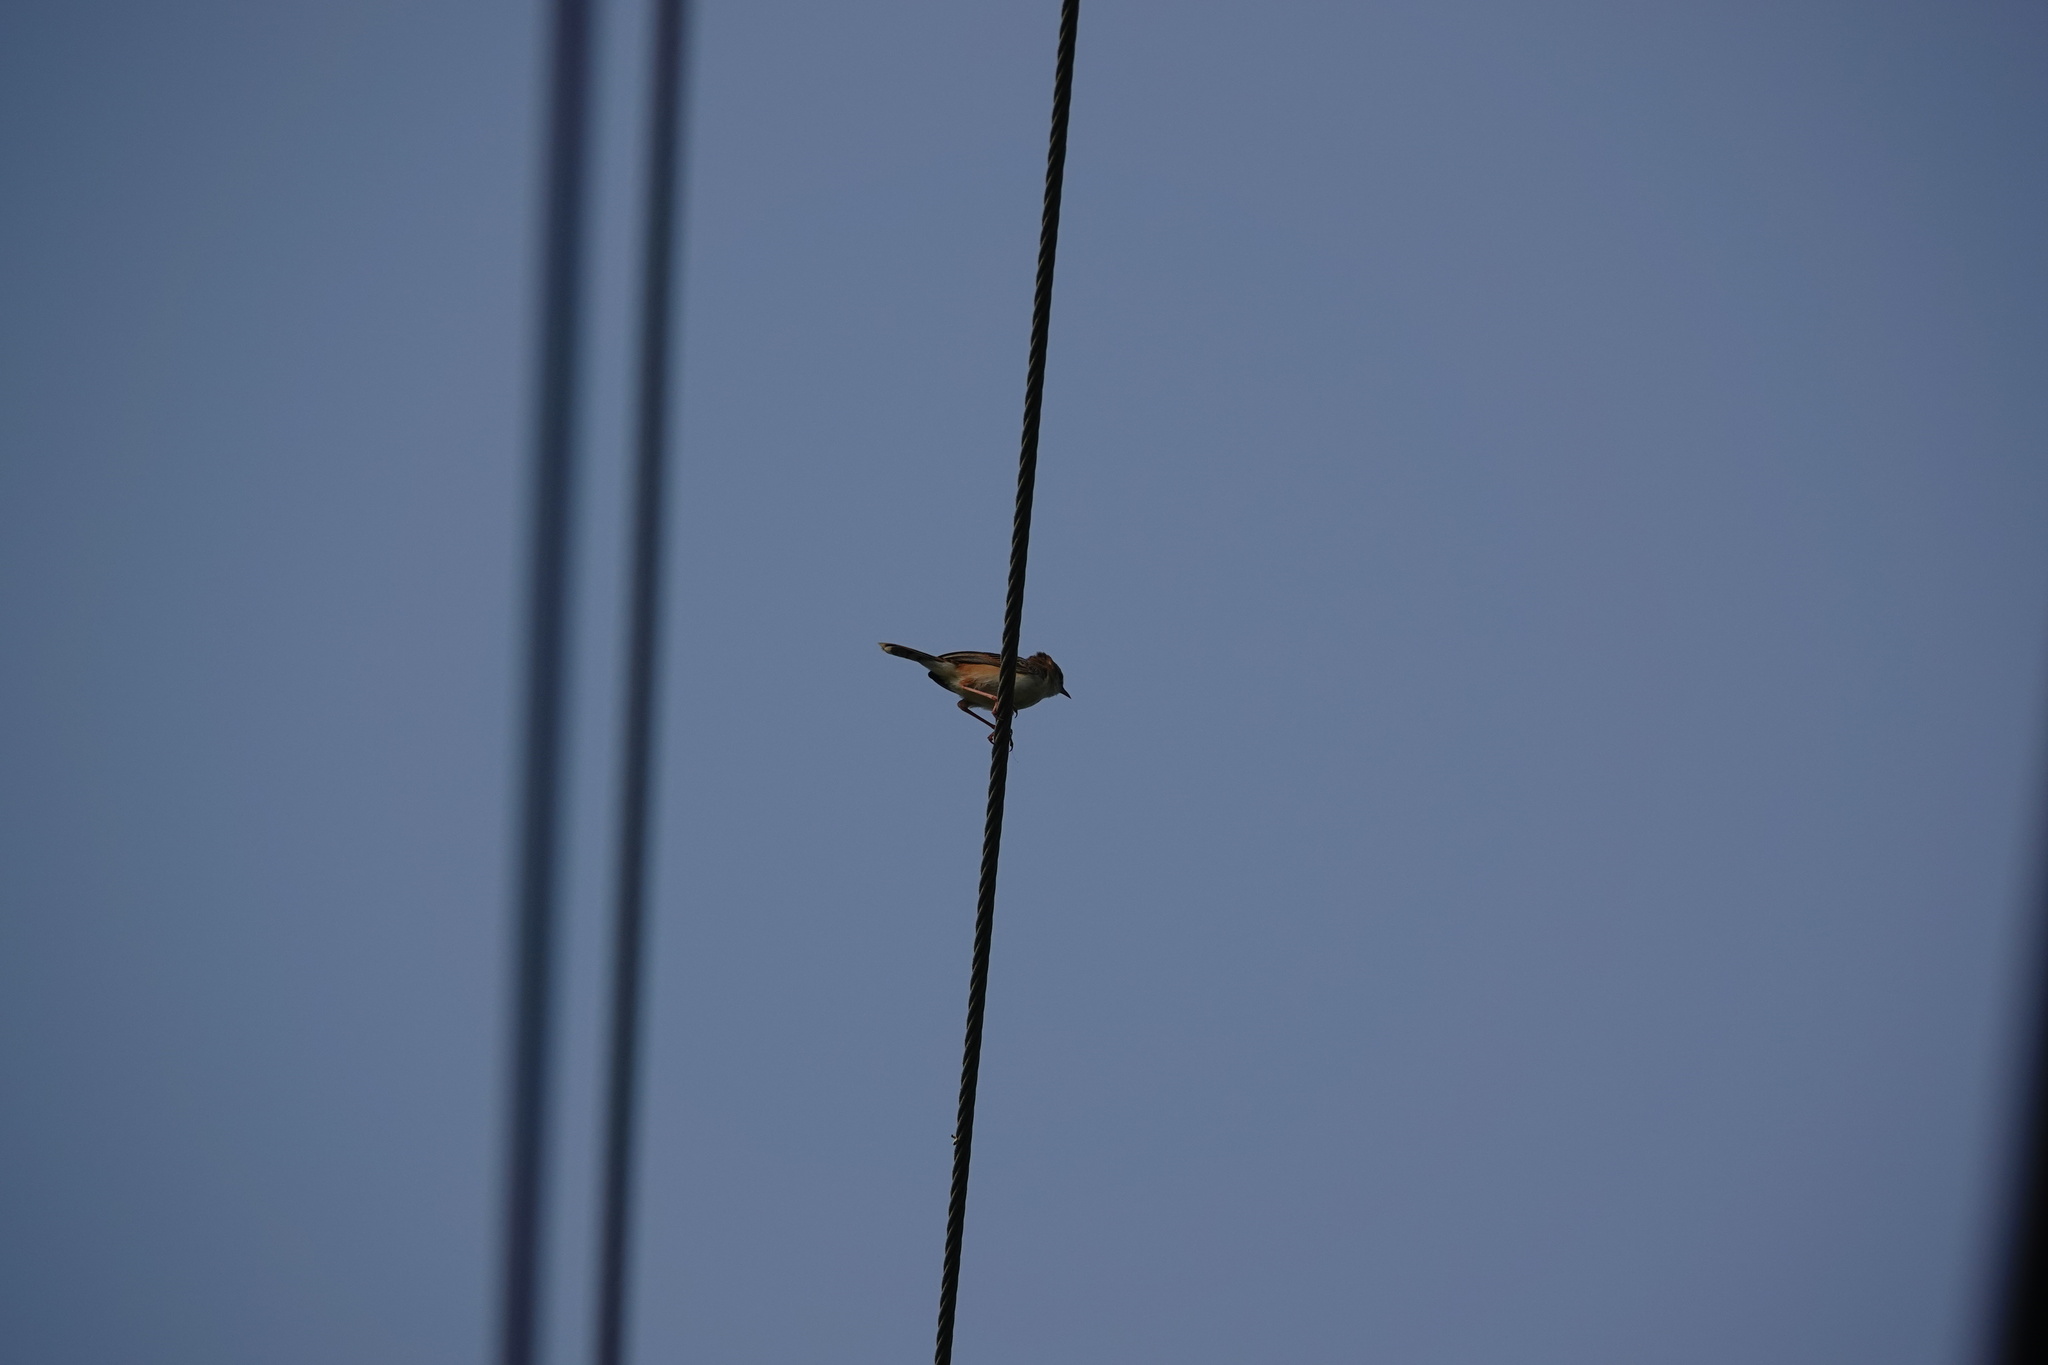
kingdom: Animalia
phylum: Chordata
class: Aves
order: Passeriformes
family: Cisticolidae
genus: Cisticola
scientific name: Cisticola juncidis
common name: Zitting cisticola
